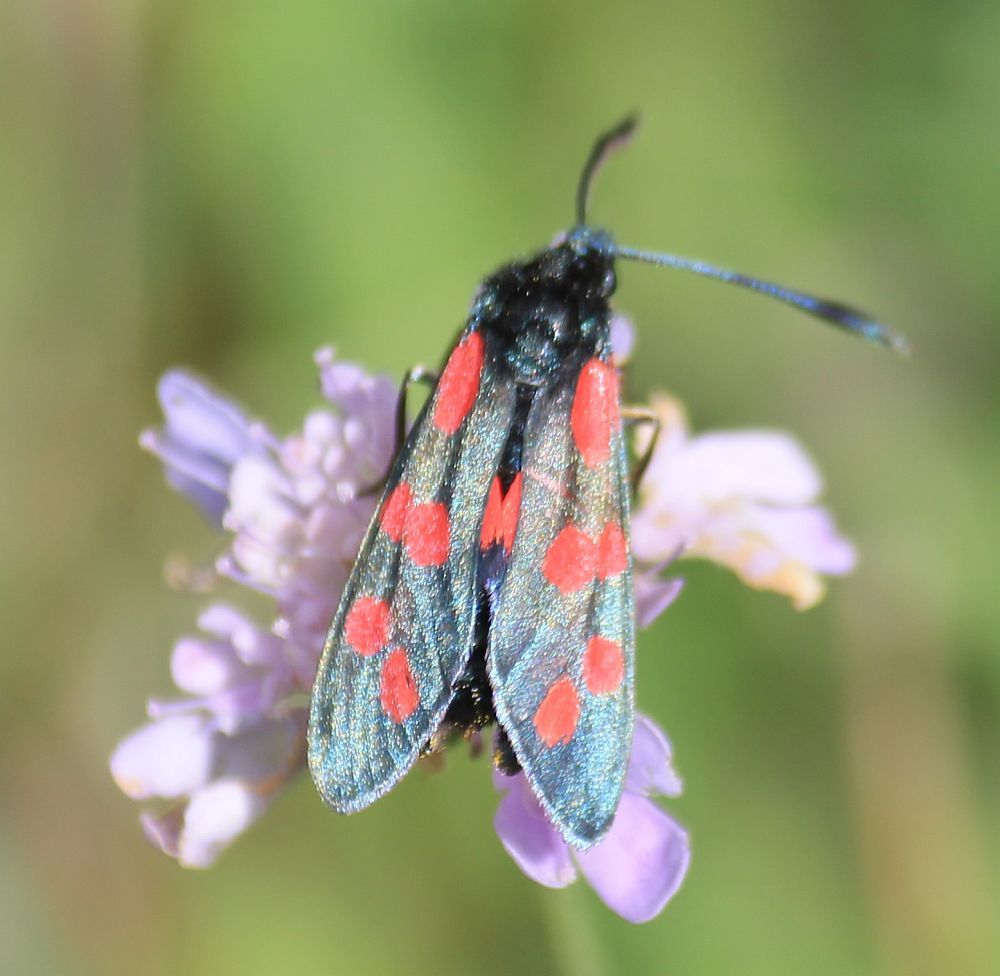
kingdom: Animalia
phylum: Arthropoda
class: Insecta
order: Lepidoptera
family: Zygaenidae
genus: Zygaena
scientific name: Zygaena filipendulae
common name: Six-spot burnet
